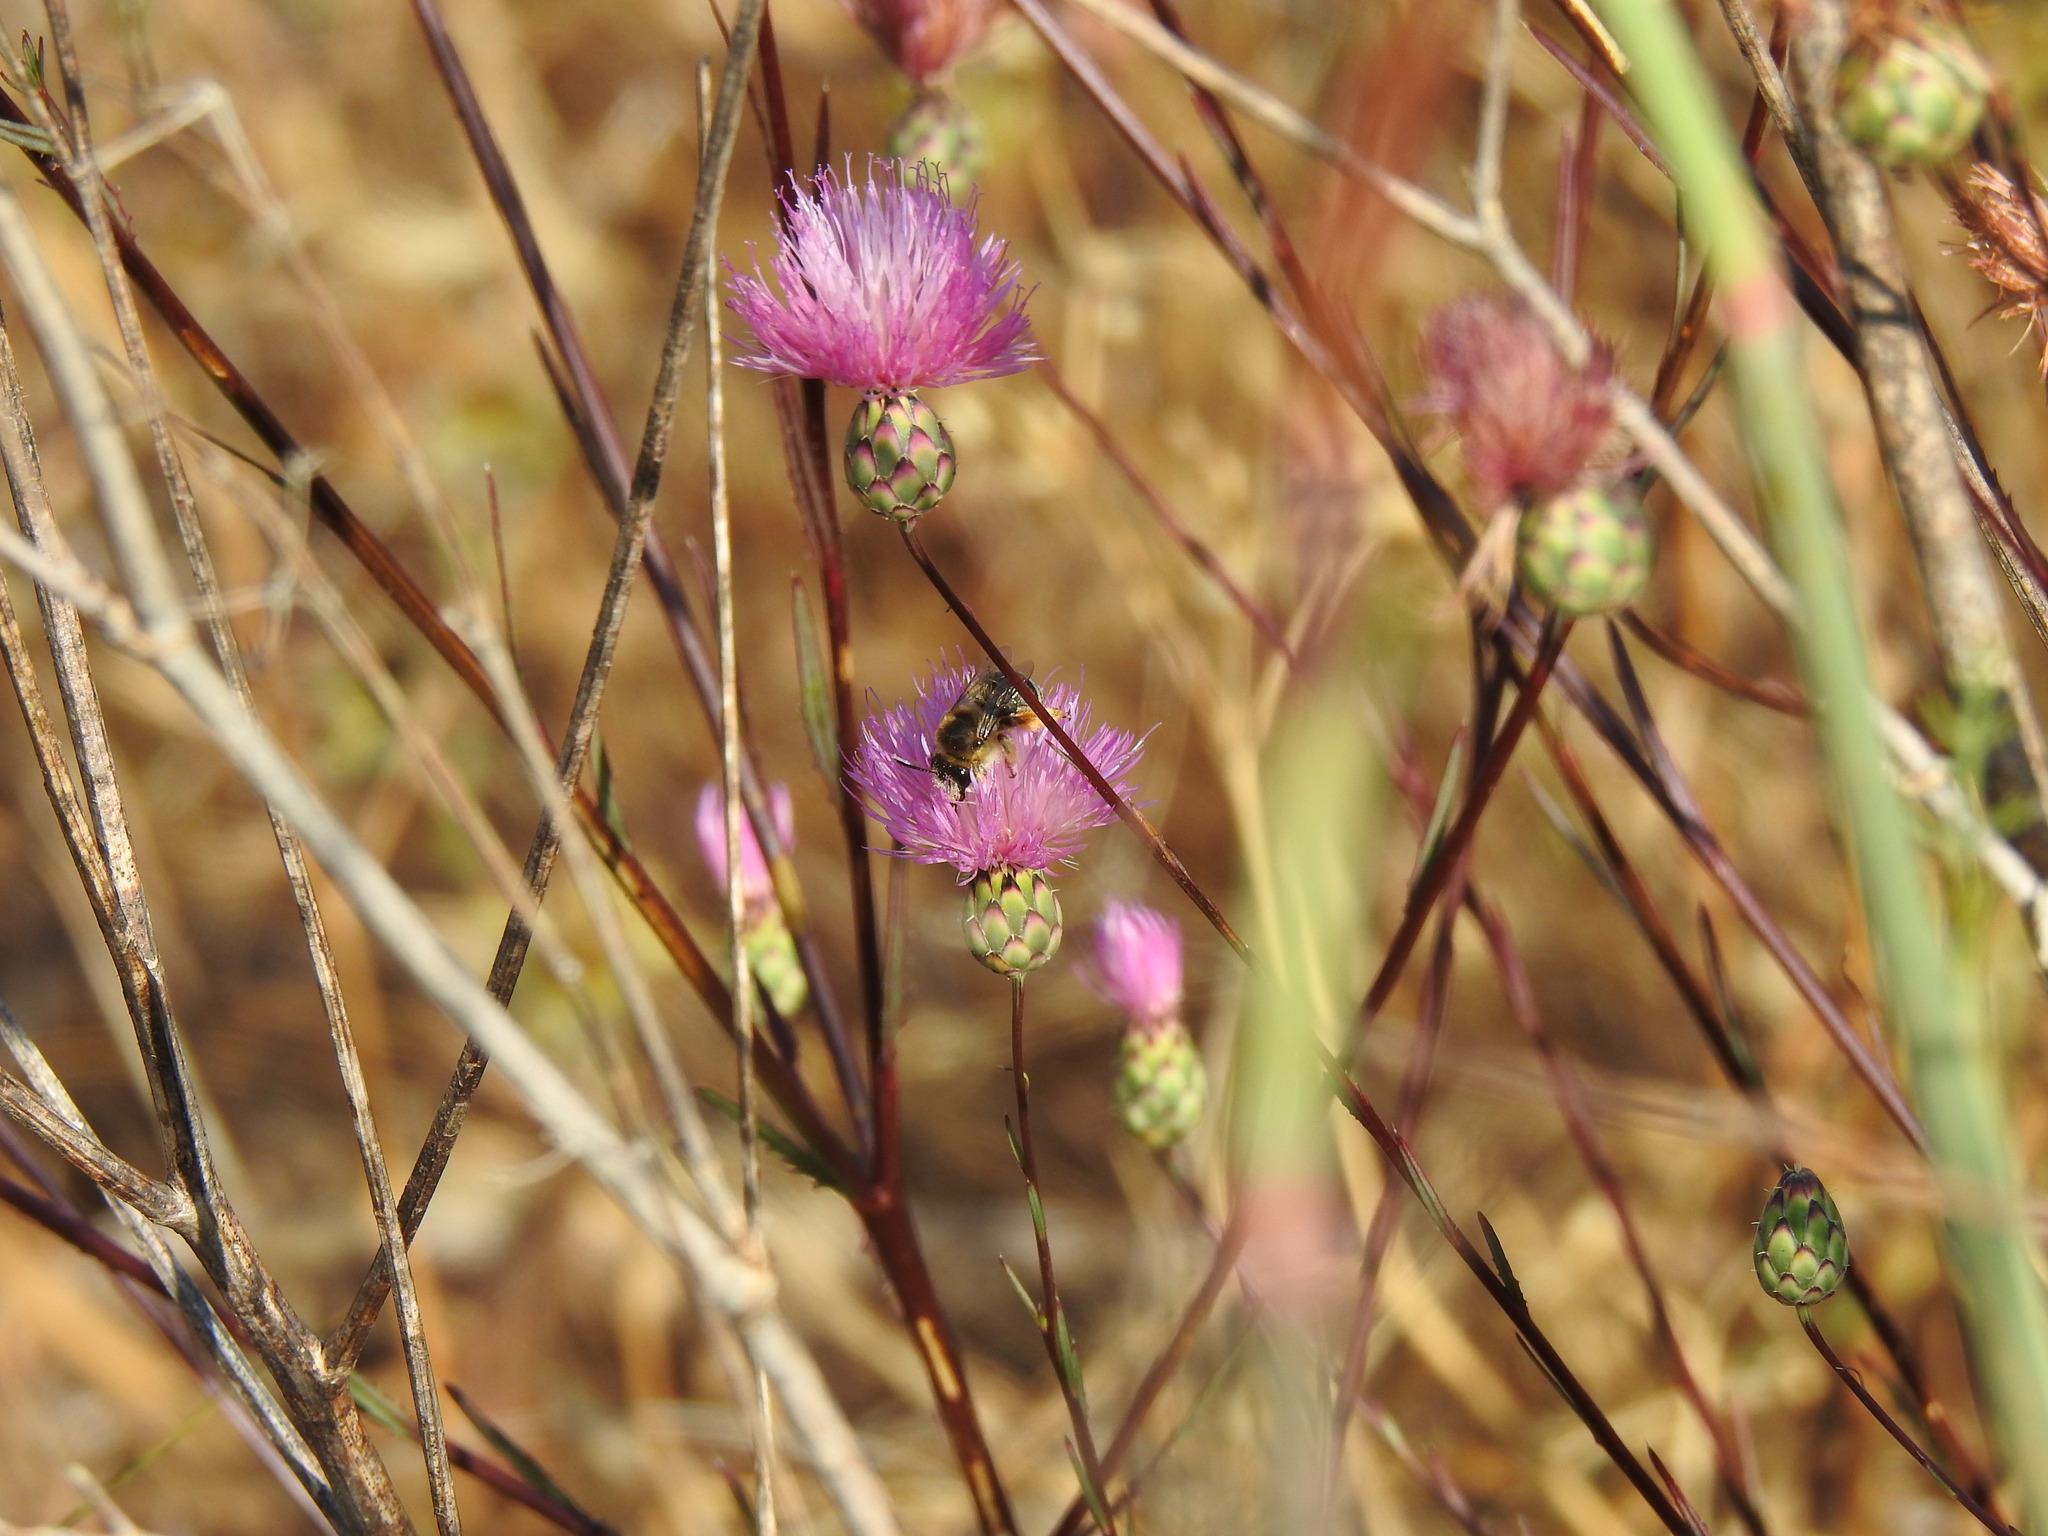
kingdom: Plantae
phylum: Tracheophyta
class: Magnoliopsida
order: Asterales
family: Asteraceae
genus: Mantisalca
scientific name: Mantisalca salmantica
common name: Dagger flower
